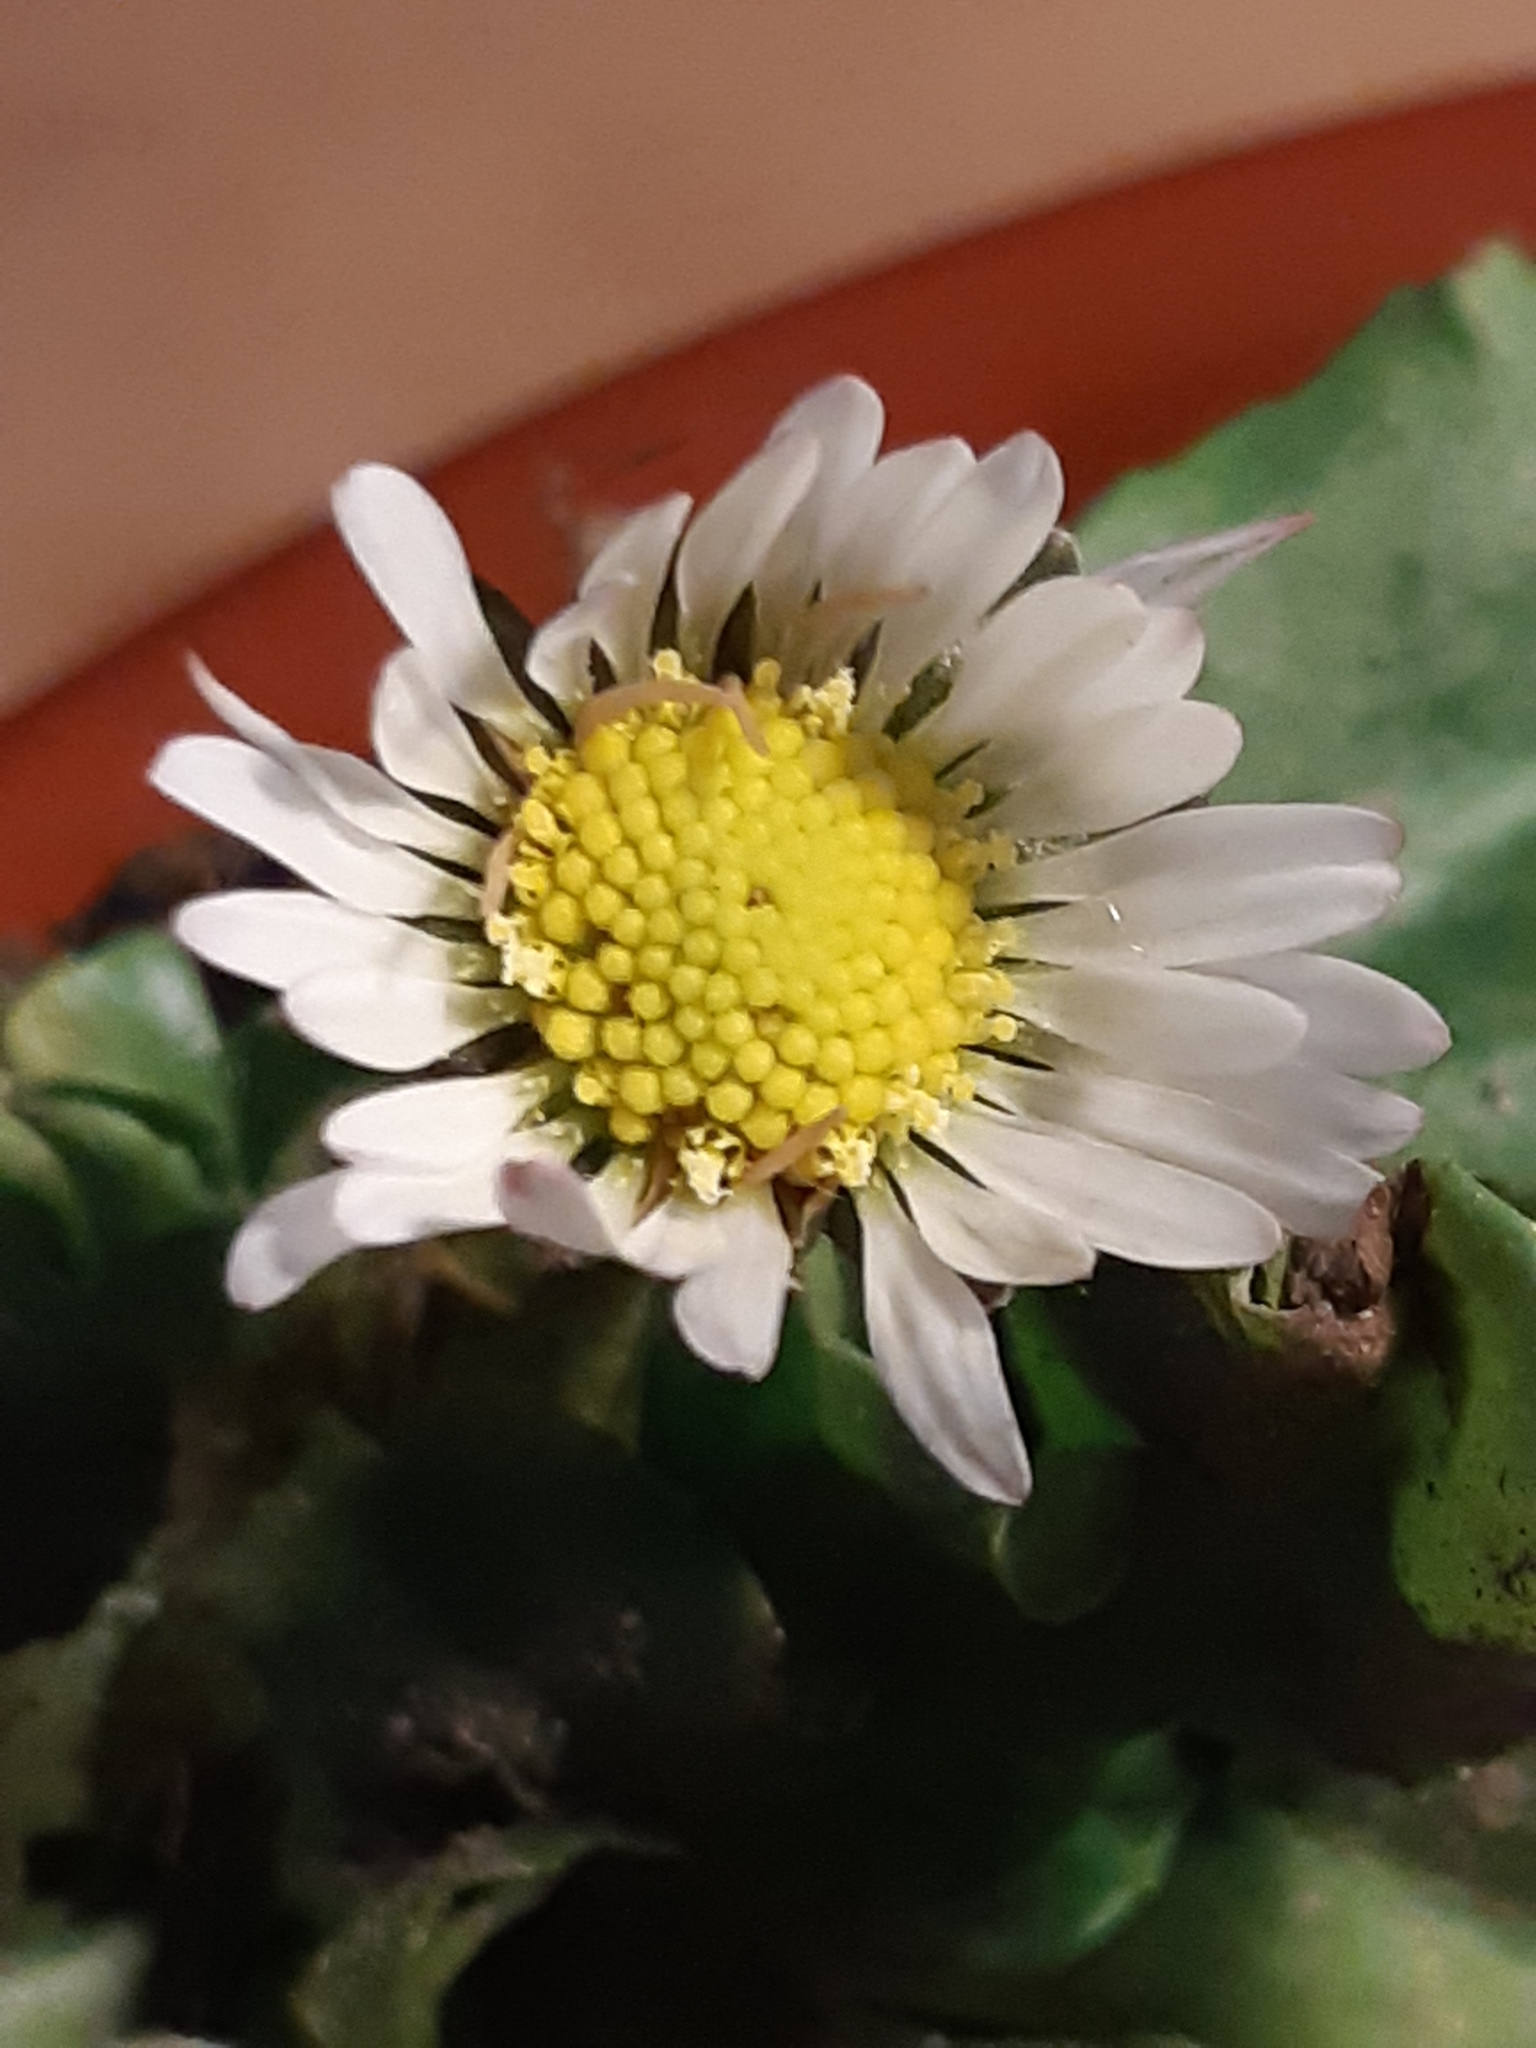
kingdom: Plantae
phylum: Tracheophyta
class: Magnoliopsida
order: Asterales
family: Asteraceae
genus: Bellis
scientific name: Bellis perennis
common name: Lawndaisy
